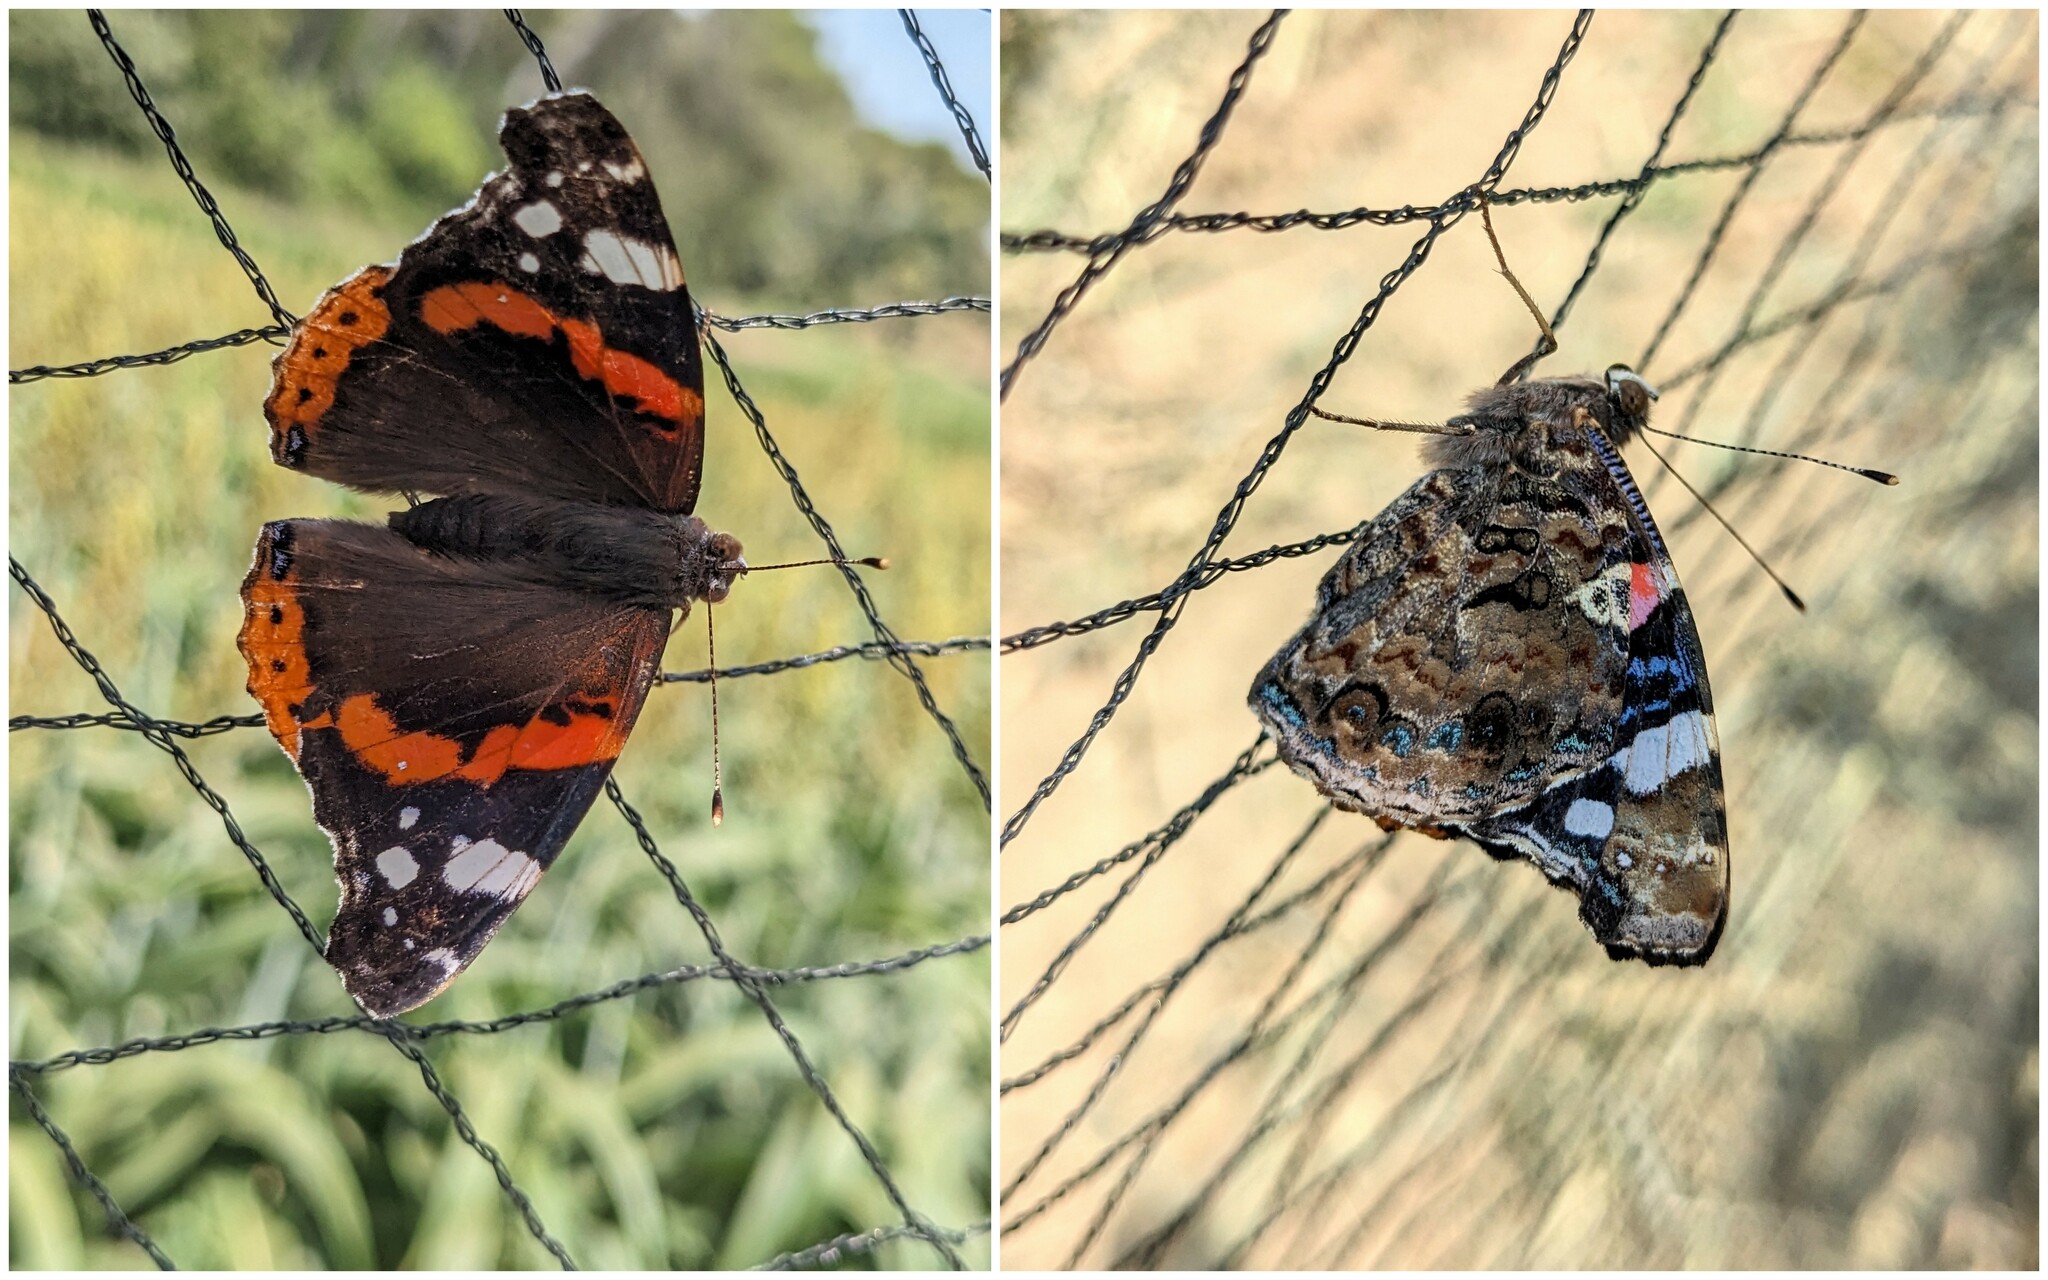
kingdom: Animalia
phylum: Arthropoda
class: Insecta
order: Lepidoptera
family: Nymphalidae
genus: Vanessa
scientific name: Vanessa atalanta
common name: Red admiral
